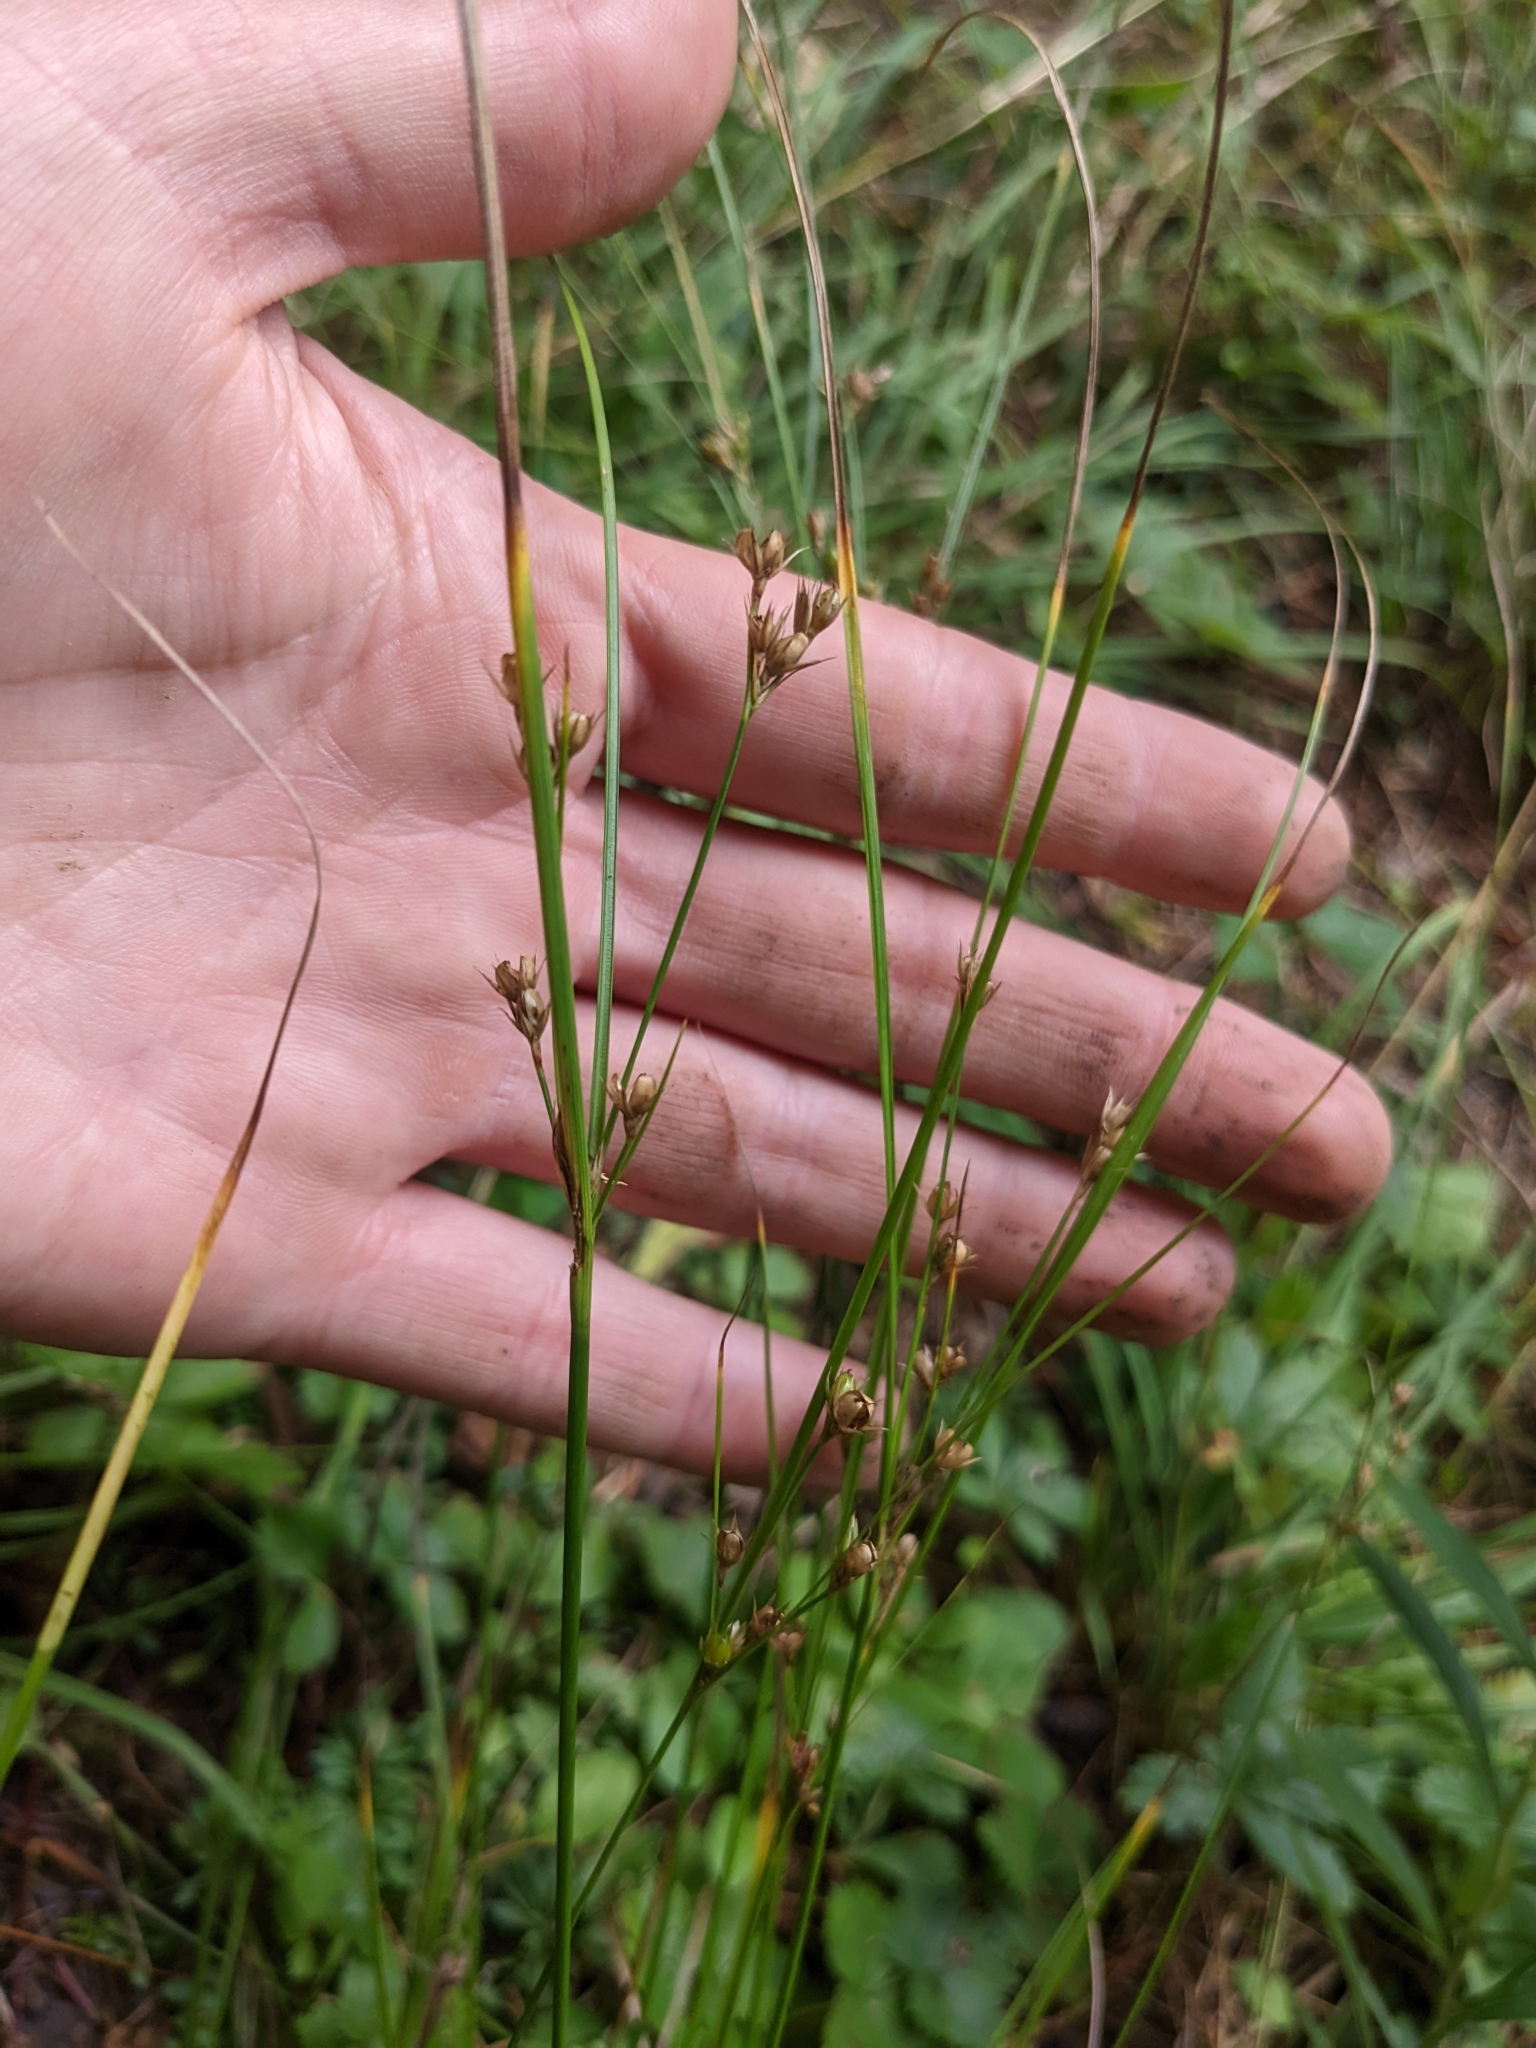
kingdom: Plantae
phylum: Tracheophyta
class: Liliopsida
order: Poales
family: Juncaceae
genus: Juncus
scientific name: Juncus tenuis
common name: Slender rush
